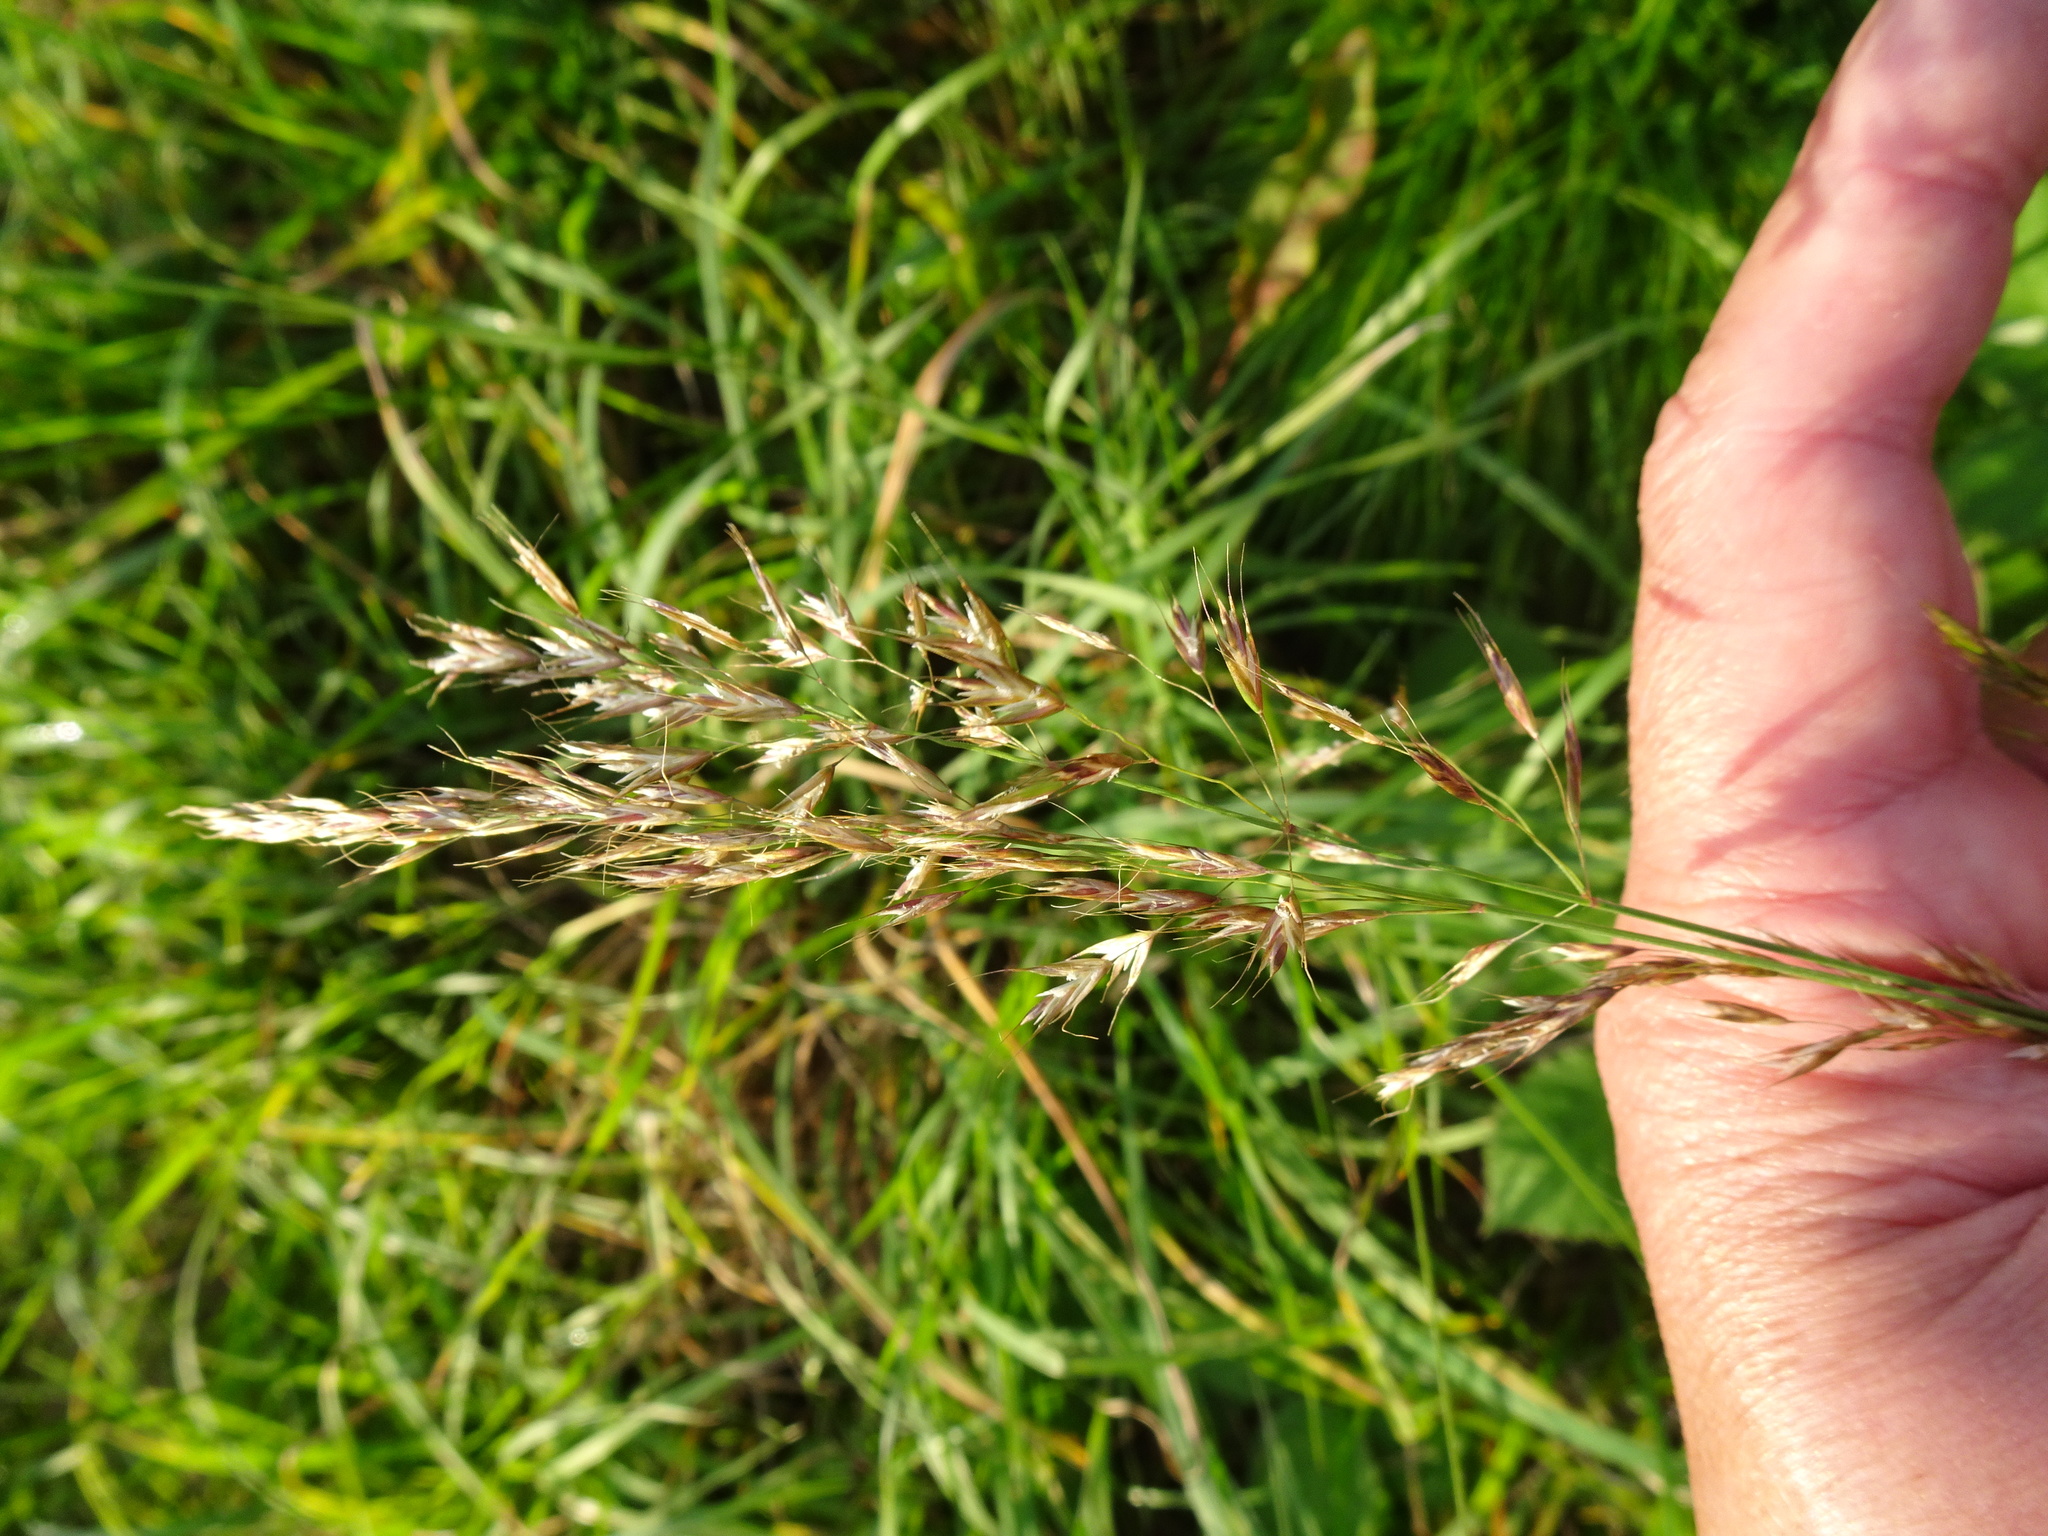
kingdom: Plantae
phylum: Tracheophyta
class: Liliopsida
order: Poales
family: Poaceae
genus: Trisetum
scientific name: Trisetum flavescens
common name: Yellow oat-grass
